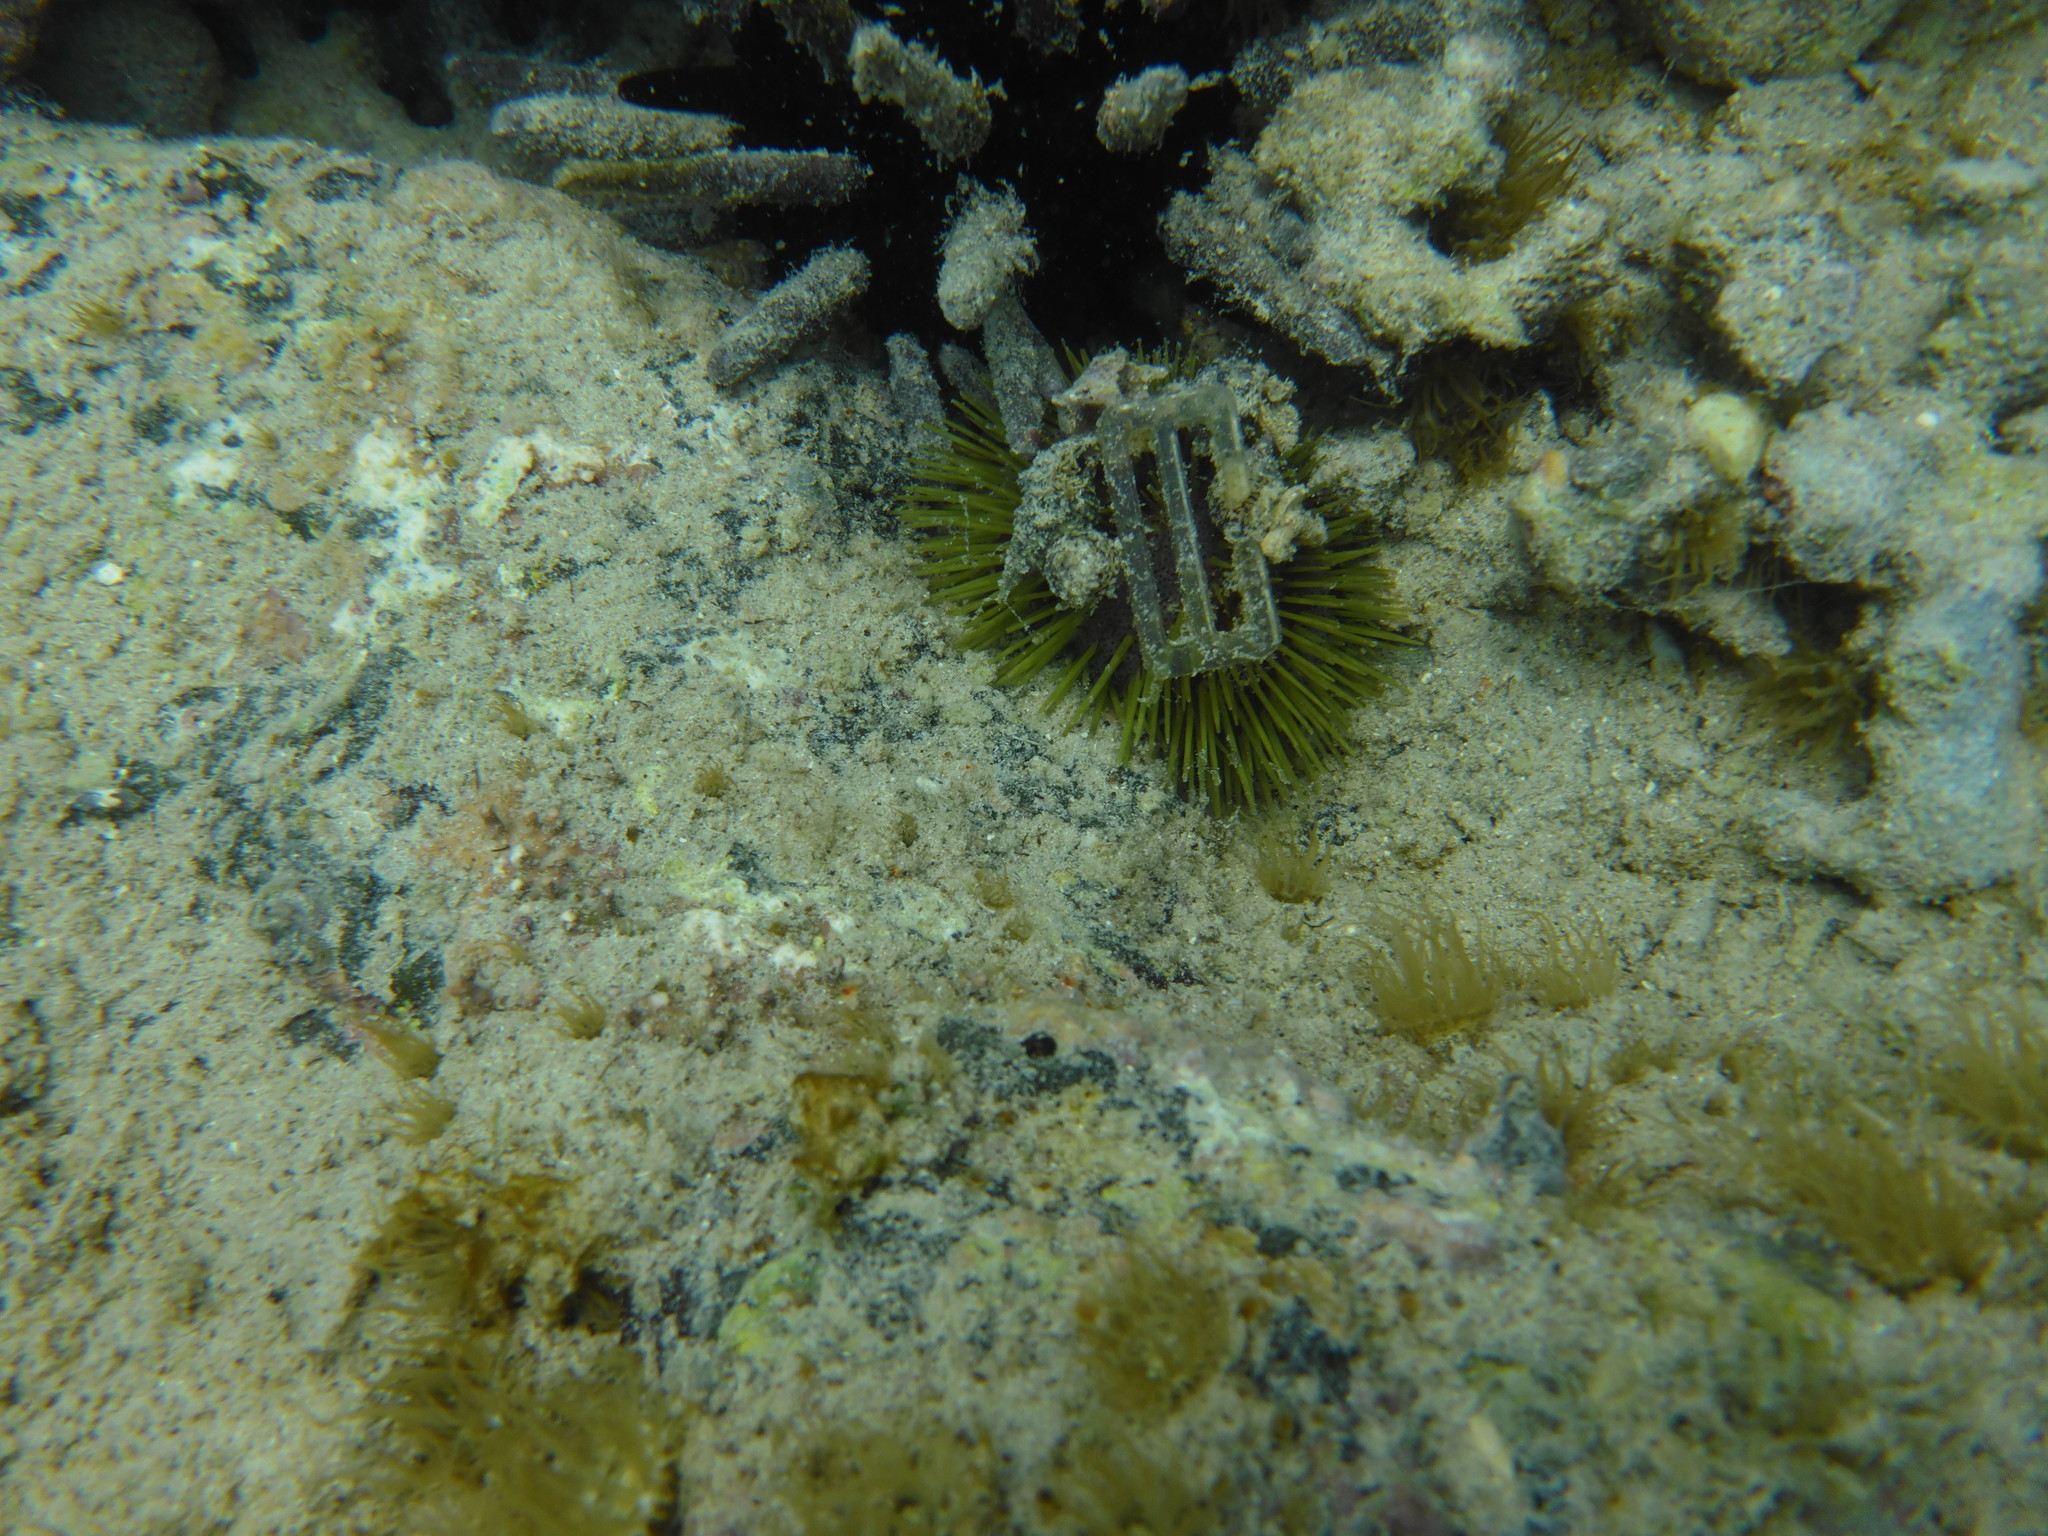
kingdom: Animalia
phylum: Echinodermata
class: Echinoidea
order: Camarodonta
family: Toxopneustidae
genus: Lytechinus
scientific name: Lytechinus semituberculatus
